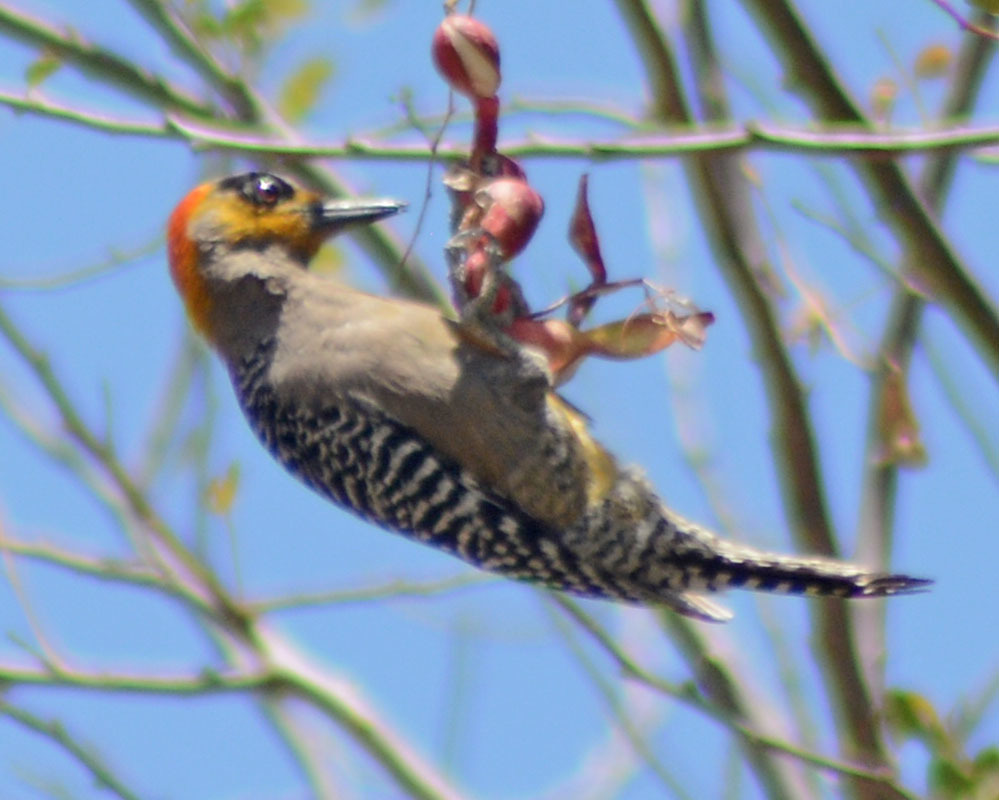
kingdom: Animalia
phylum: Chordata
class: Aves
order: Piciformes
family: Picidae
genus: Melanerpes
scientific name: Melanerpes chrysogenys
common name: Golden-cheeked woodpecker
